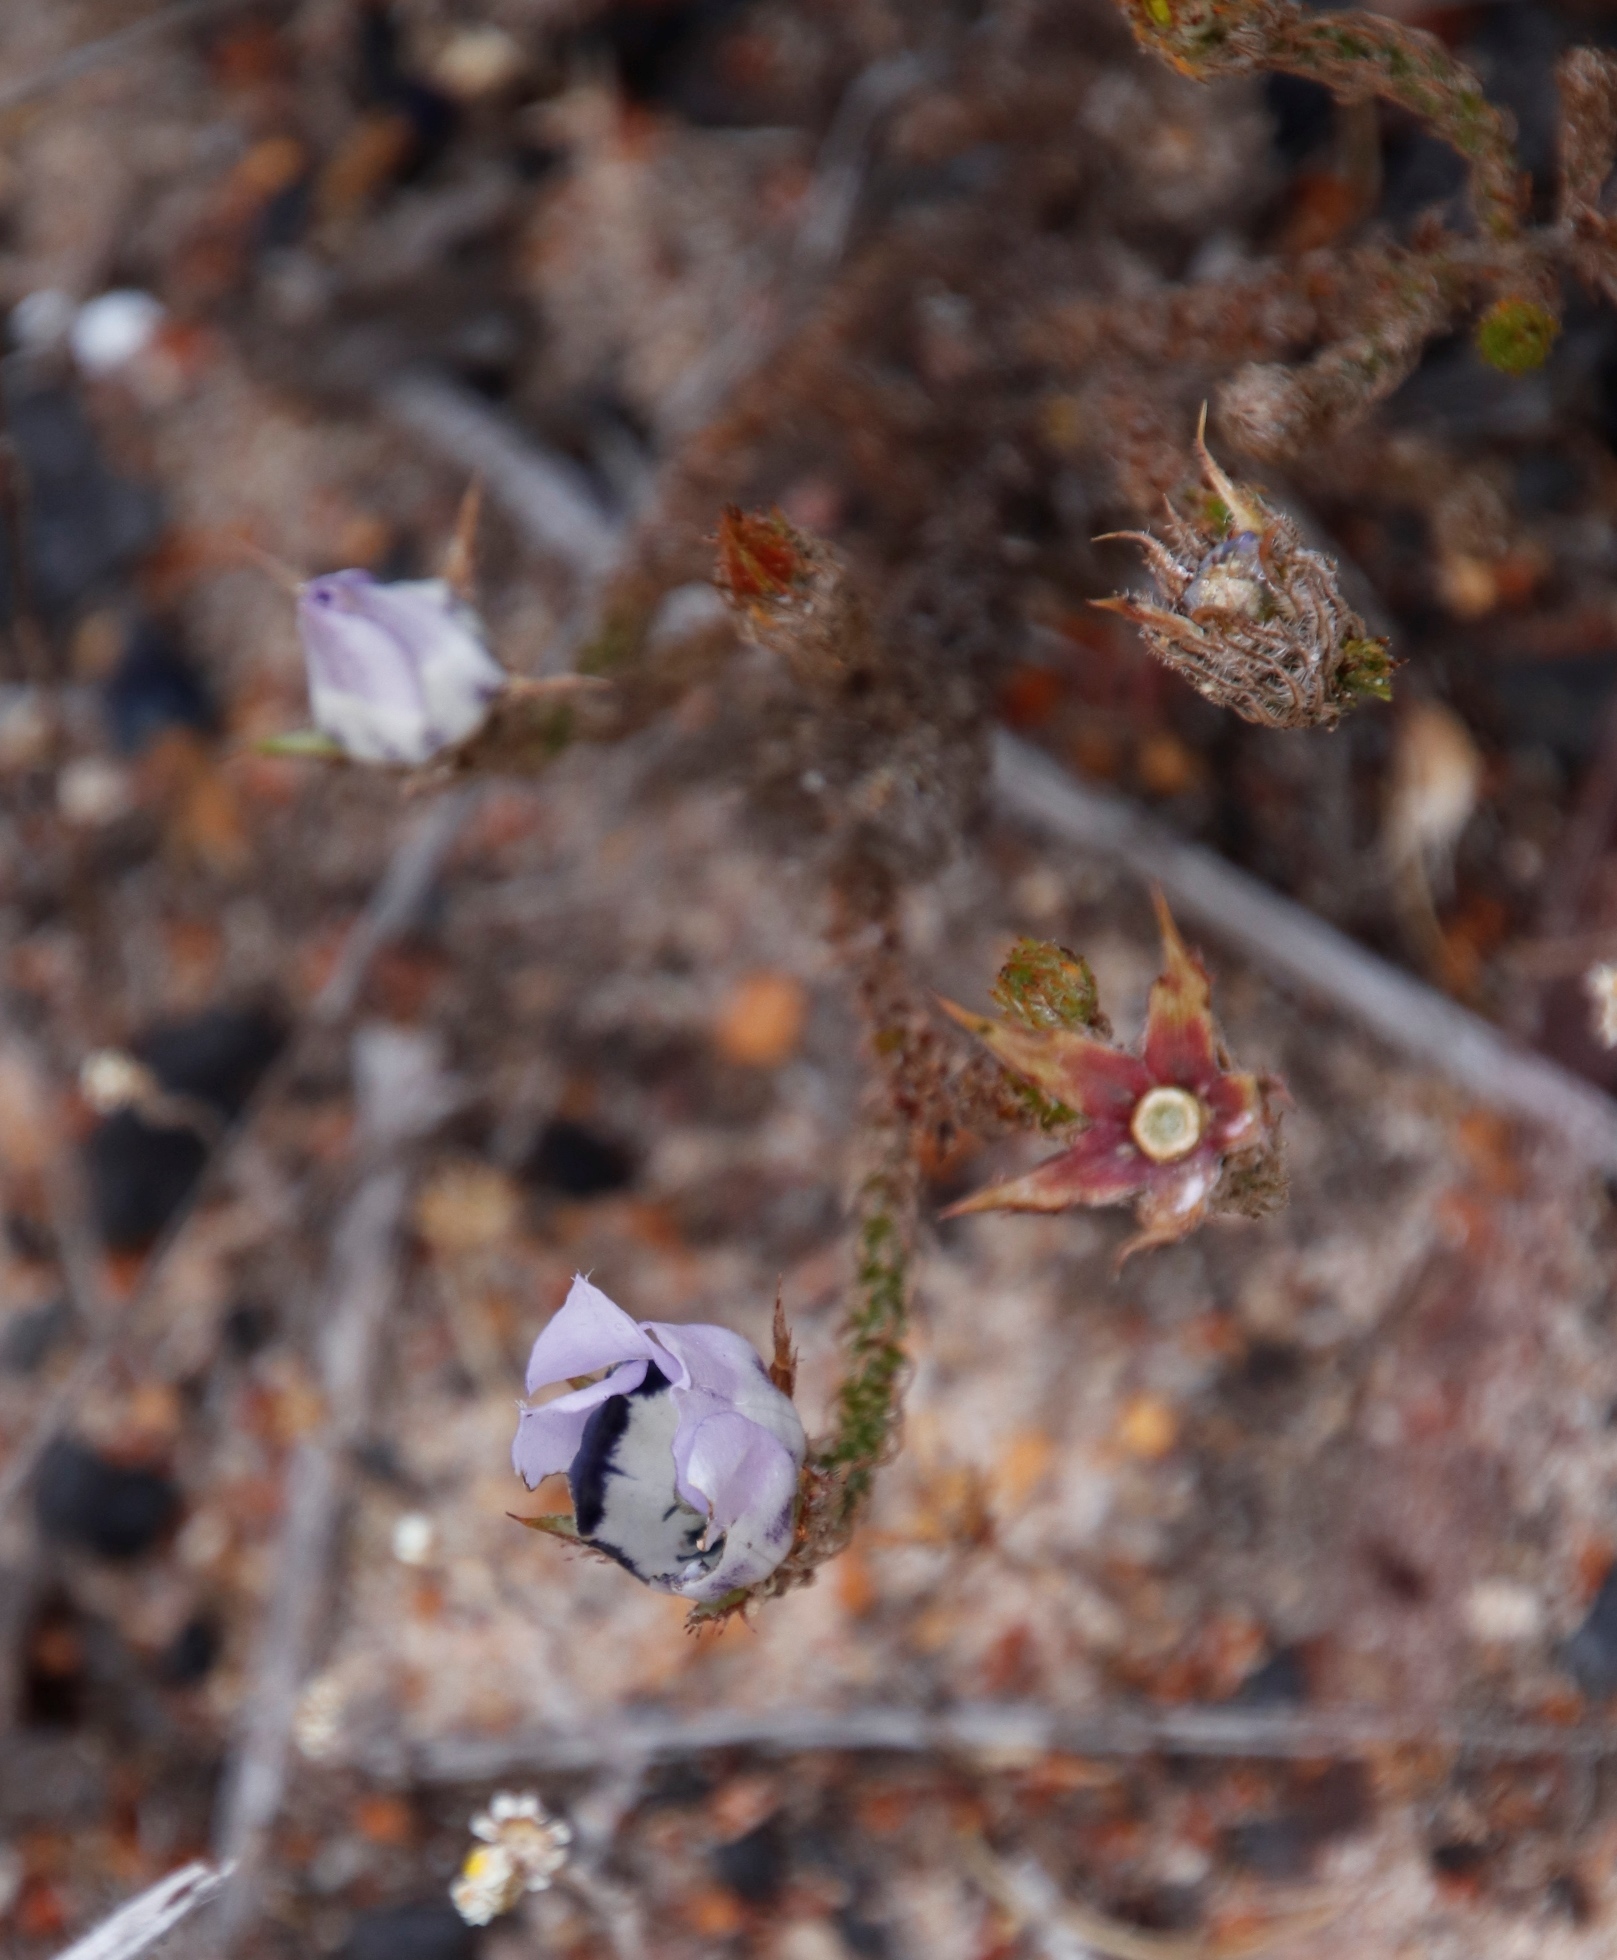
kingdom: Plantae
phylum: Tracheophyta
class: Magnoliopsida
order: Asterales
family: Campanulaceae
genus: Roella
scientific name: Roella ciliata
